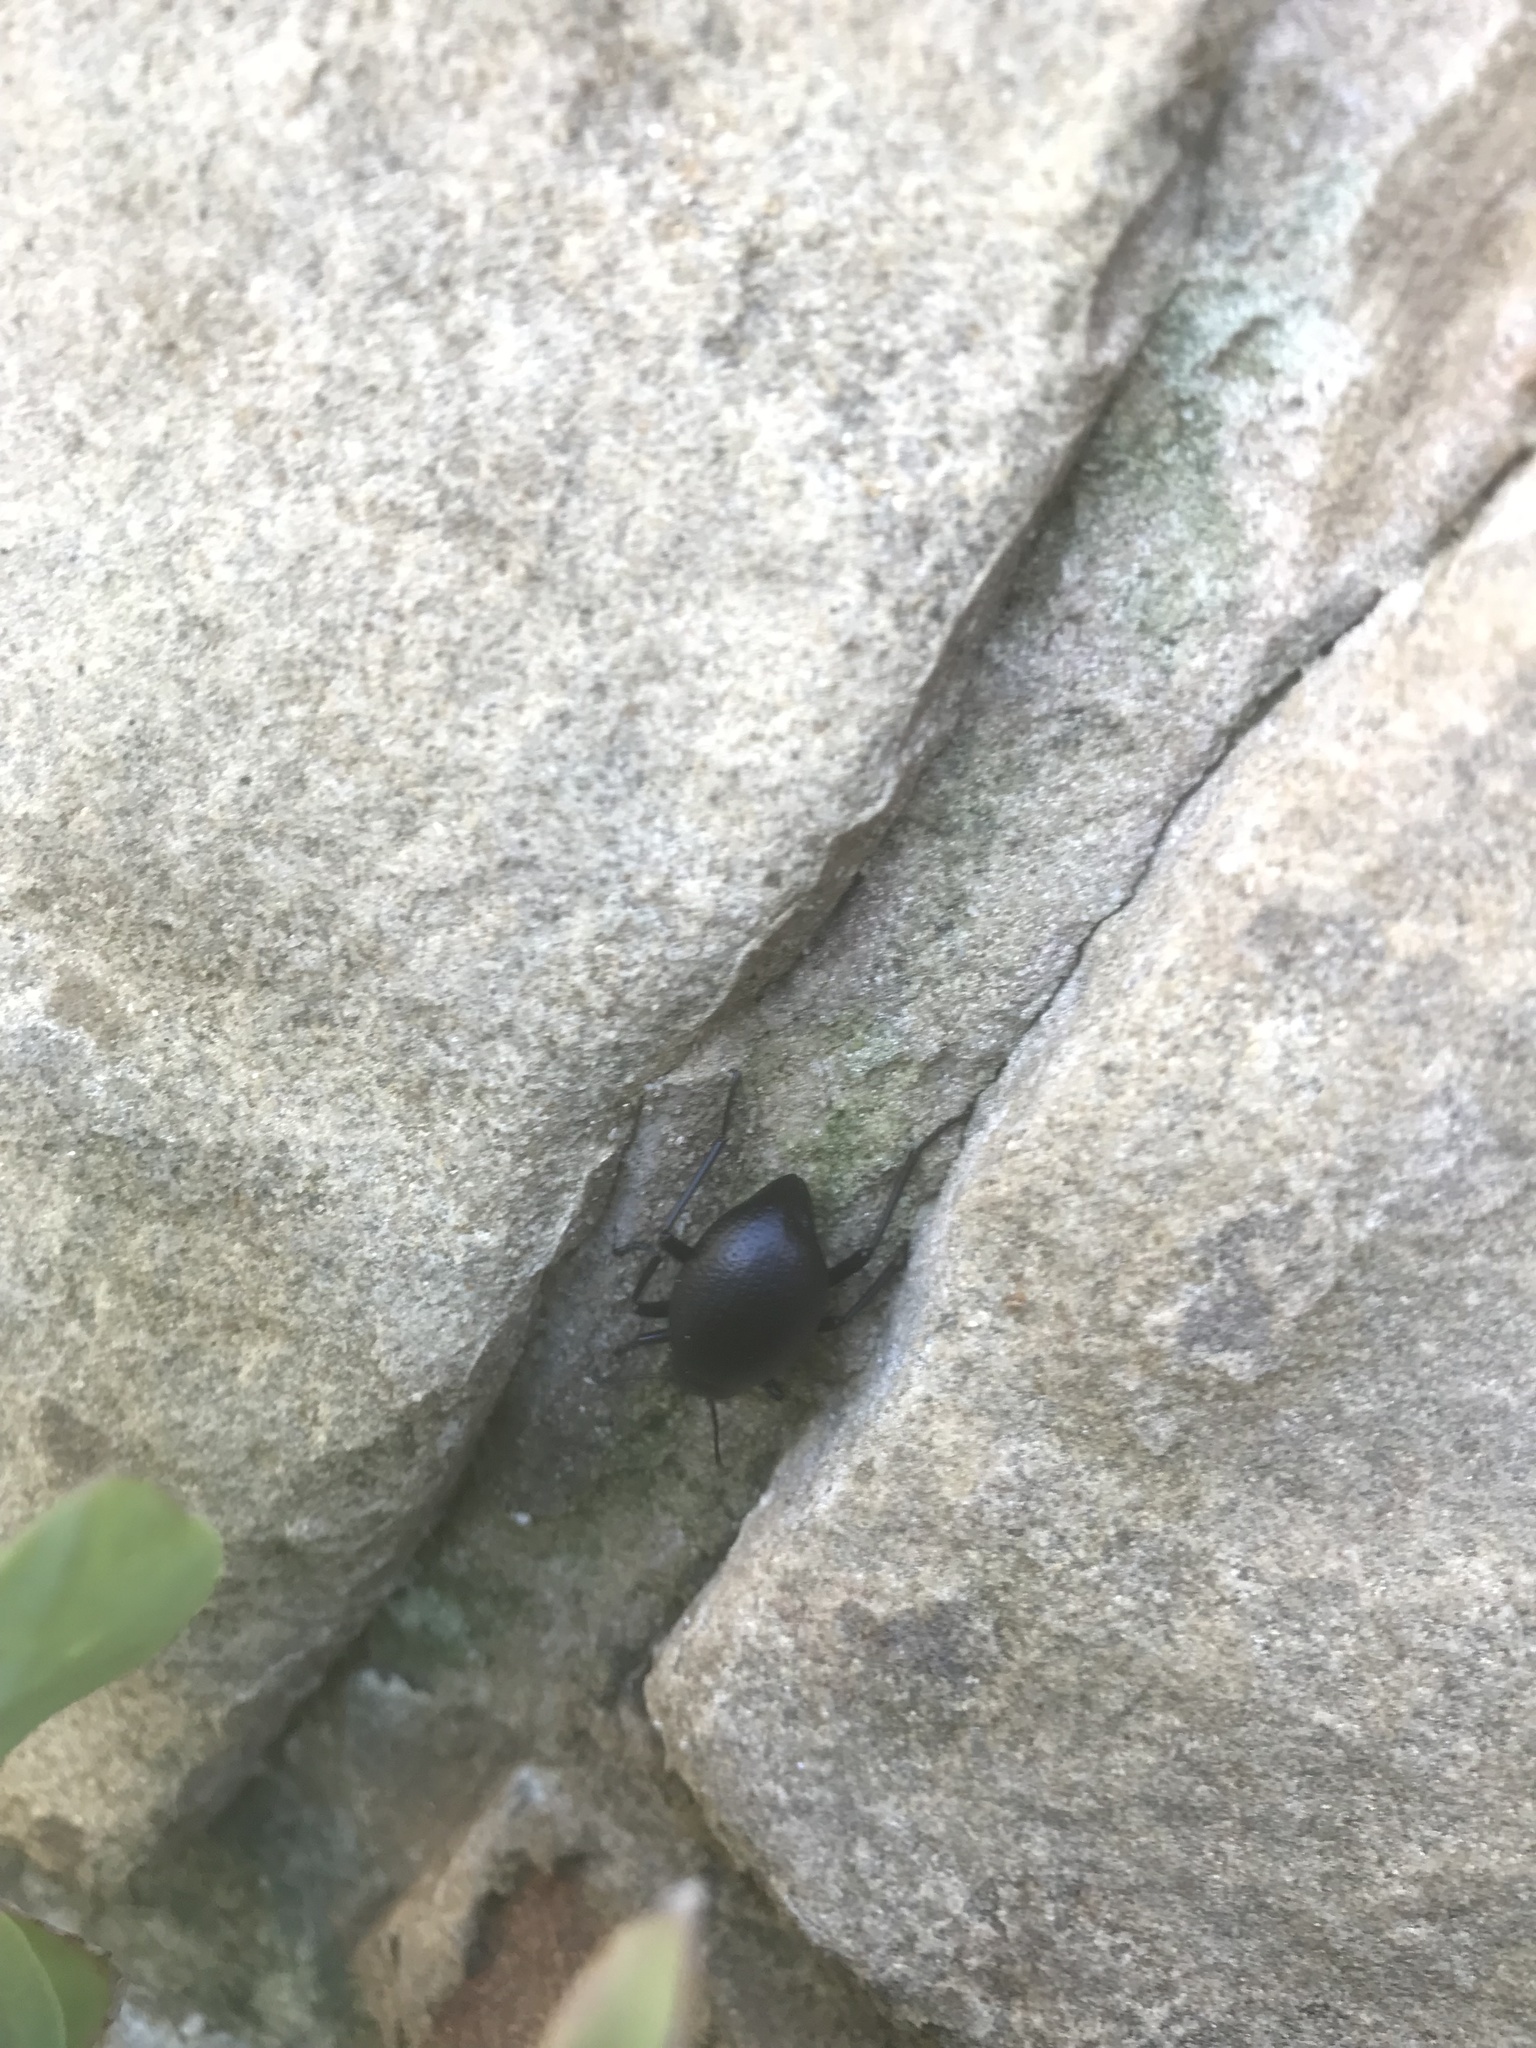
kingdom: Animalia
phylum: Arthropoda
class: Insecta
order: Coleoptera
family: Tenebrionidae
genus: Eleodes
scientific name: Eleodes goryi
